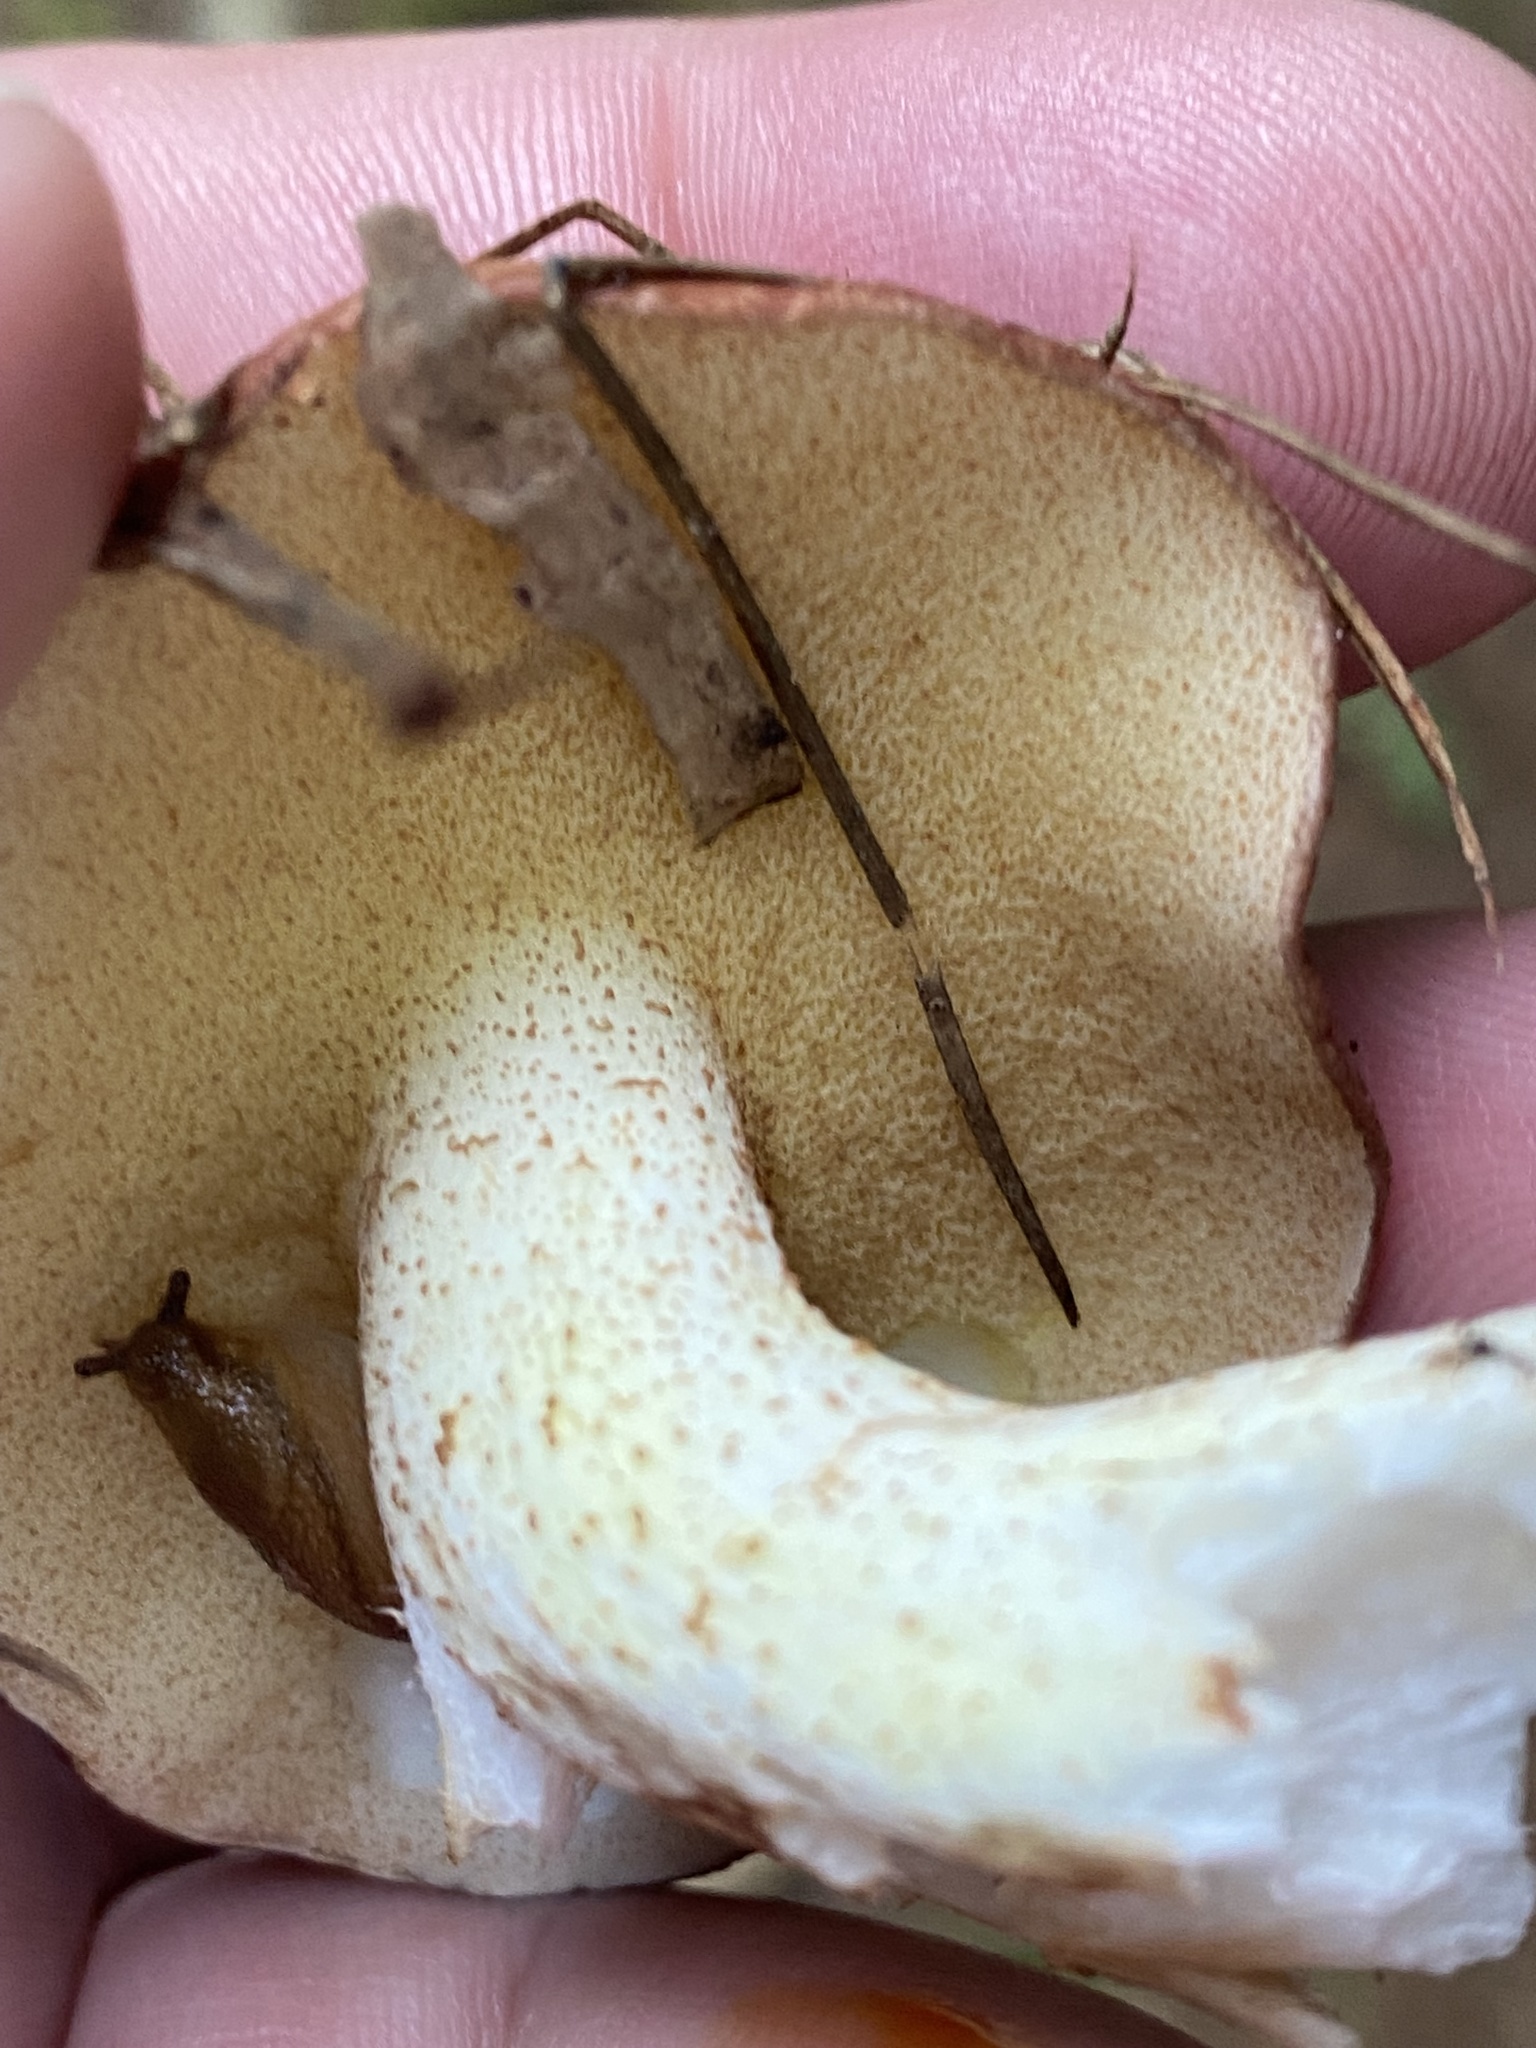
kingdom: Fungi
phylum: Basidiomycota
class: Agaricomycetes
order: Boletales
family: Suillaceae
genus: Fuscoboletinus
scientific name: Fuscoboletinus weaverae
